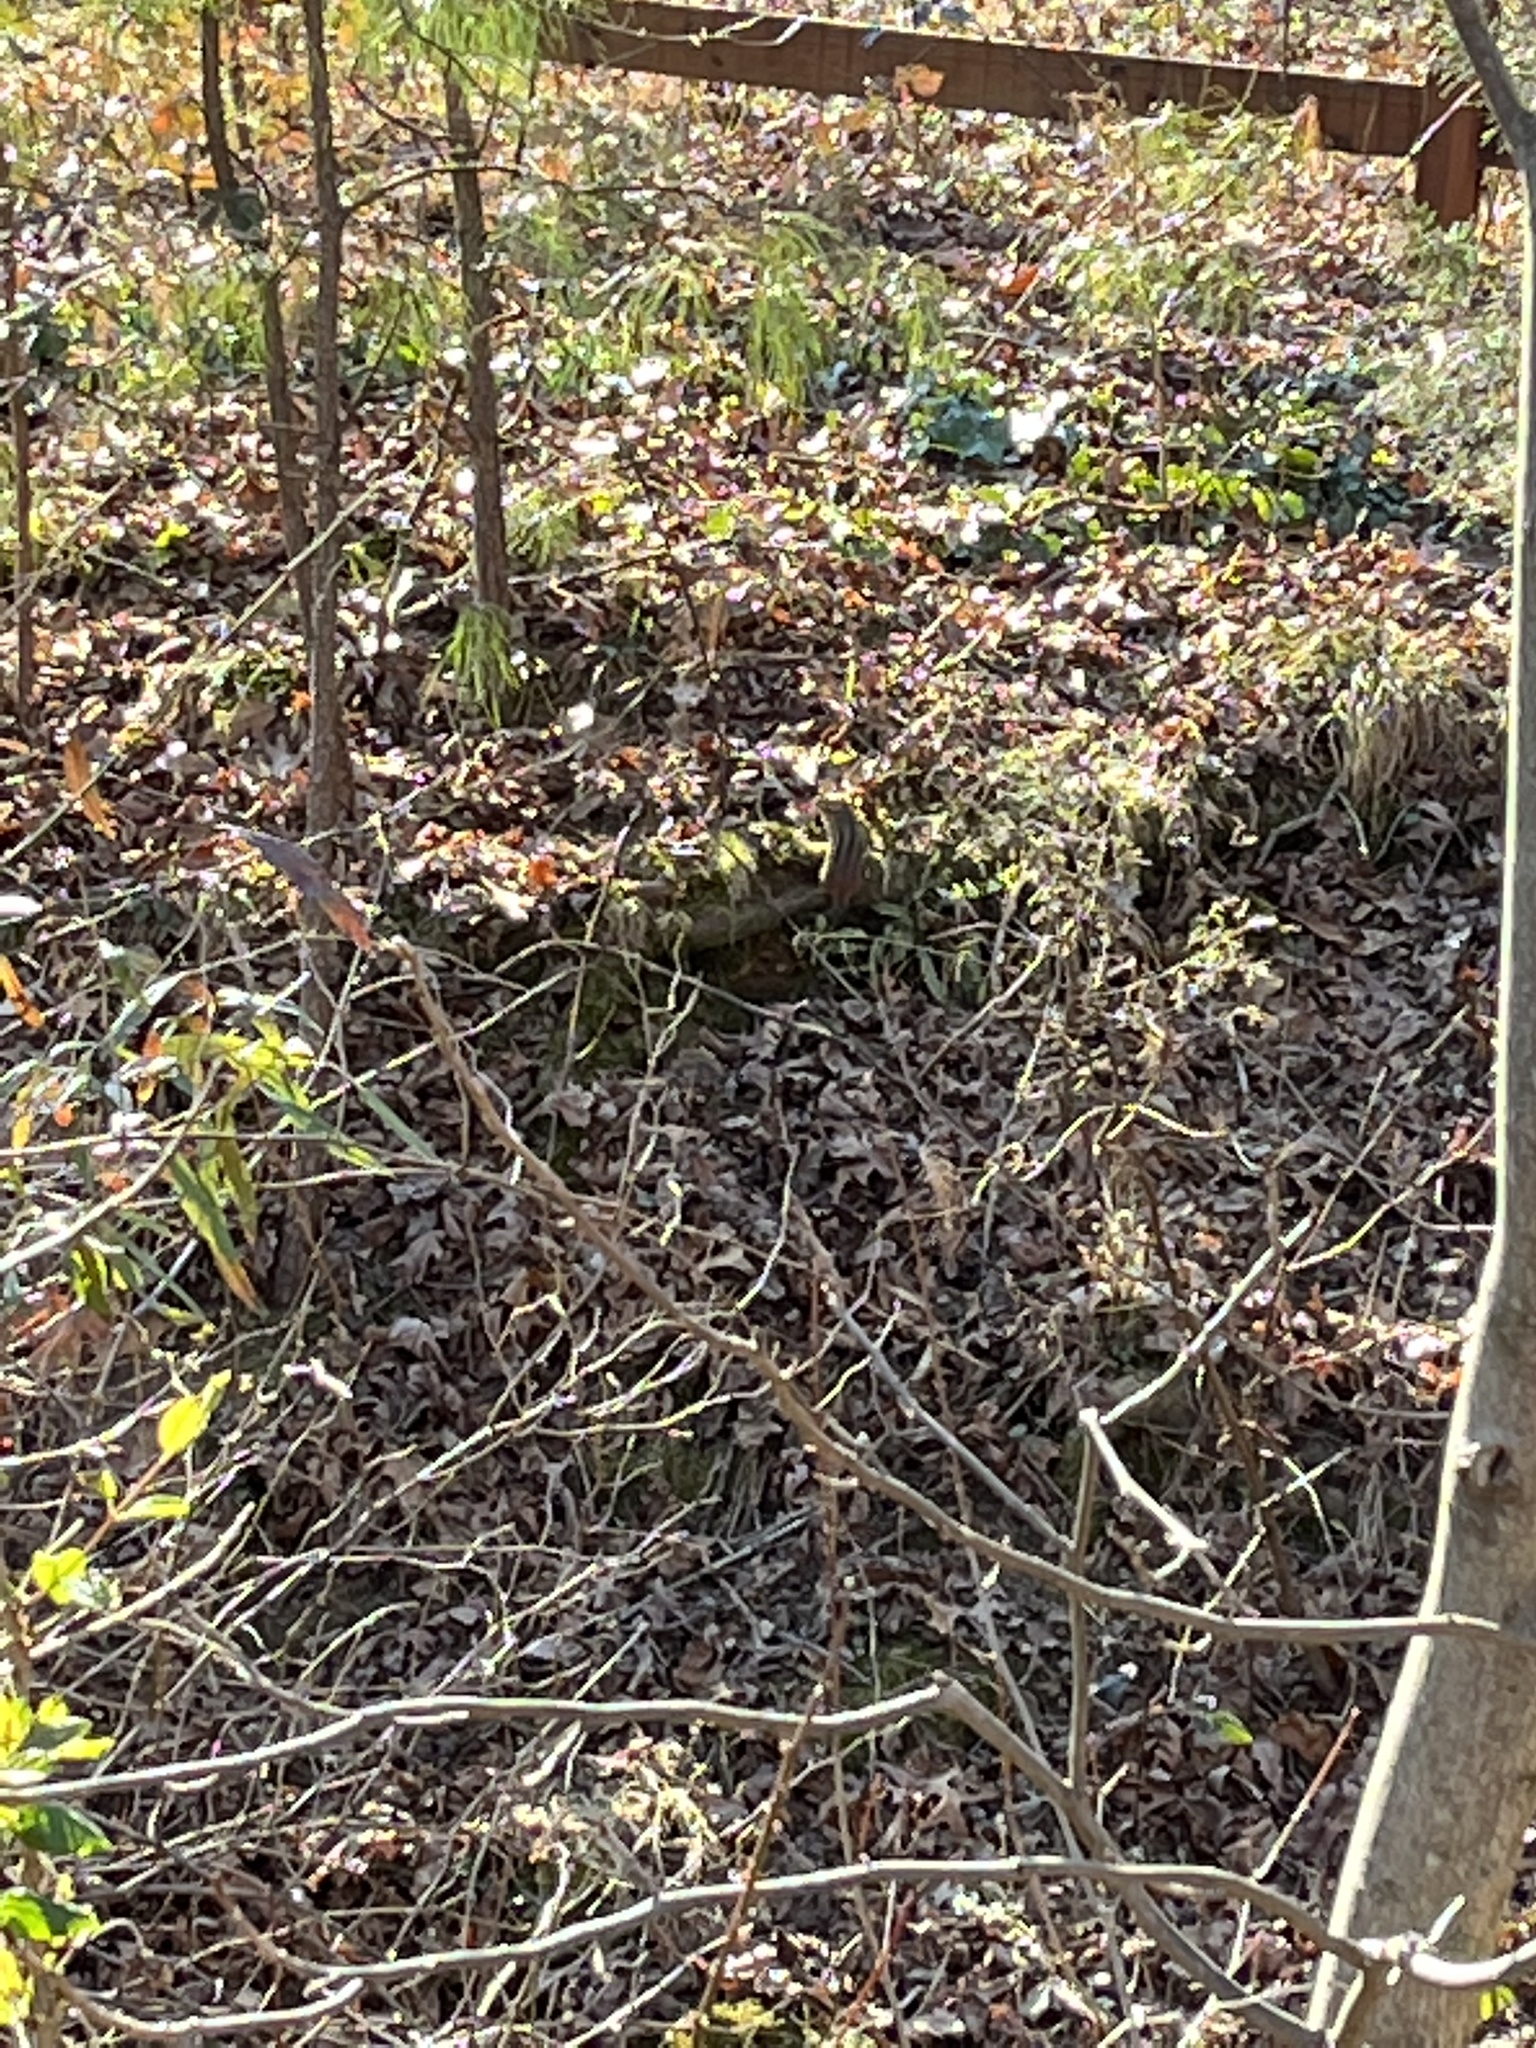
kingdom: Animalia
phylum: Chordata
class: Mammalia
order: Rodentia
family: Sciuridae
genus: Tamias
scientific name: Tamias striatus
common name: Eastern chipmunk
